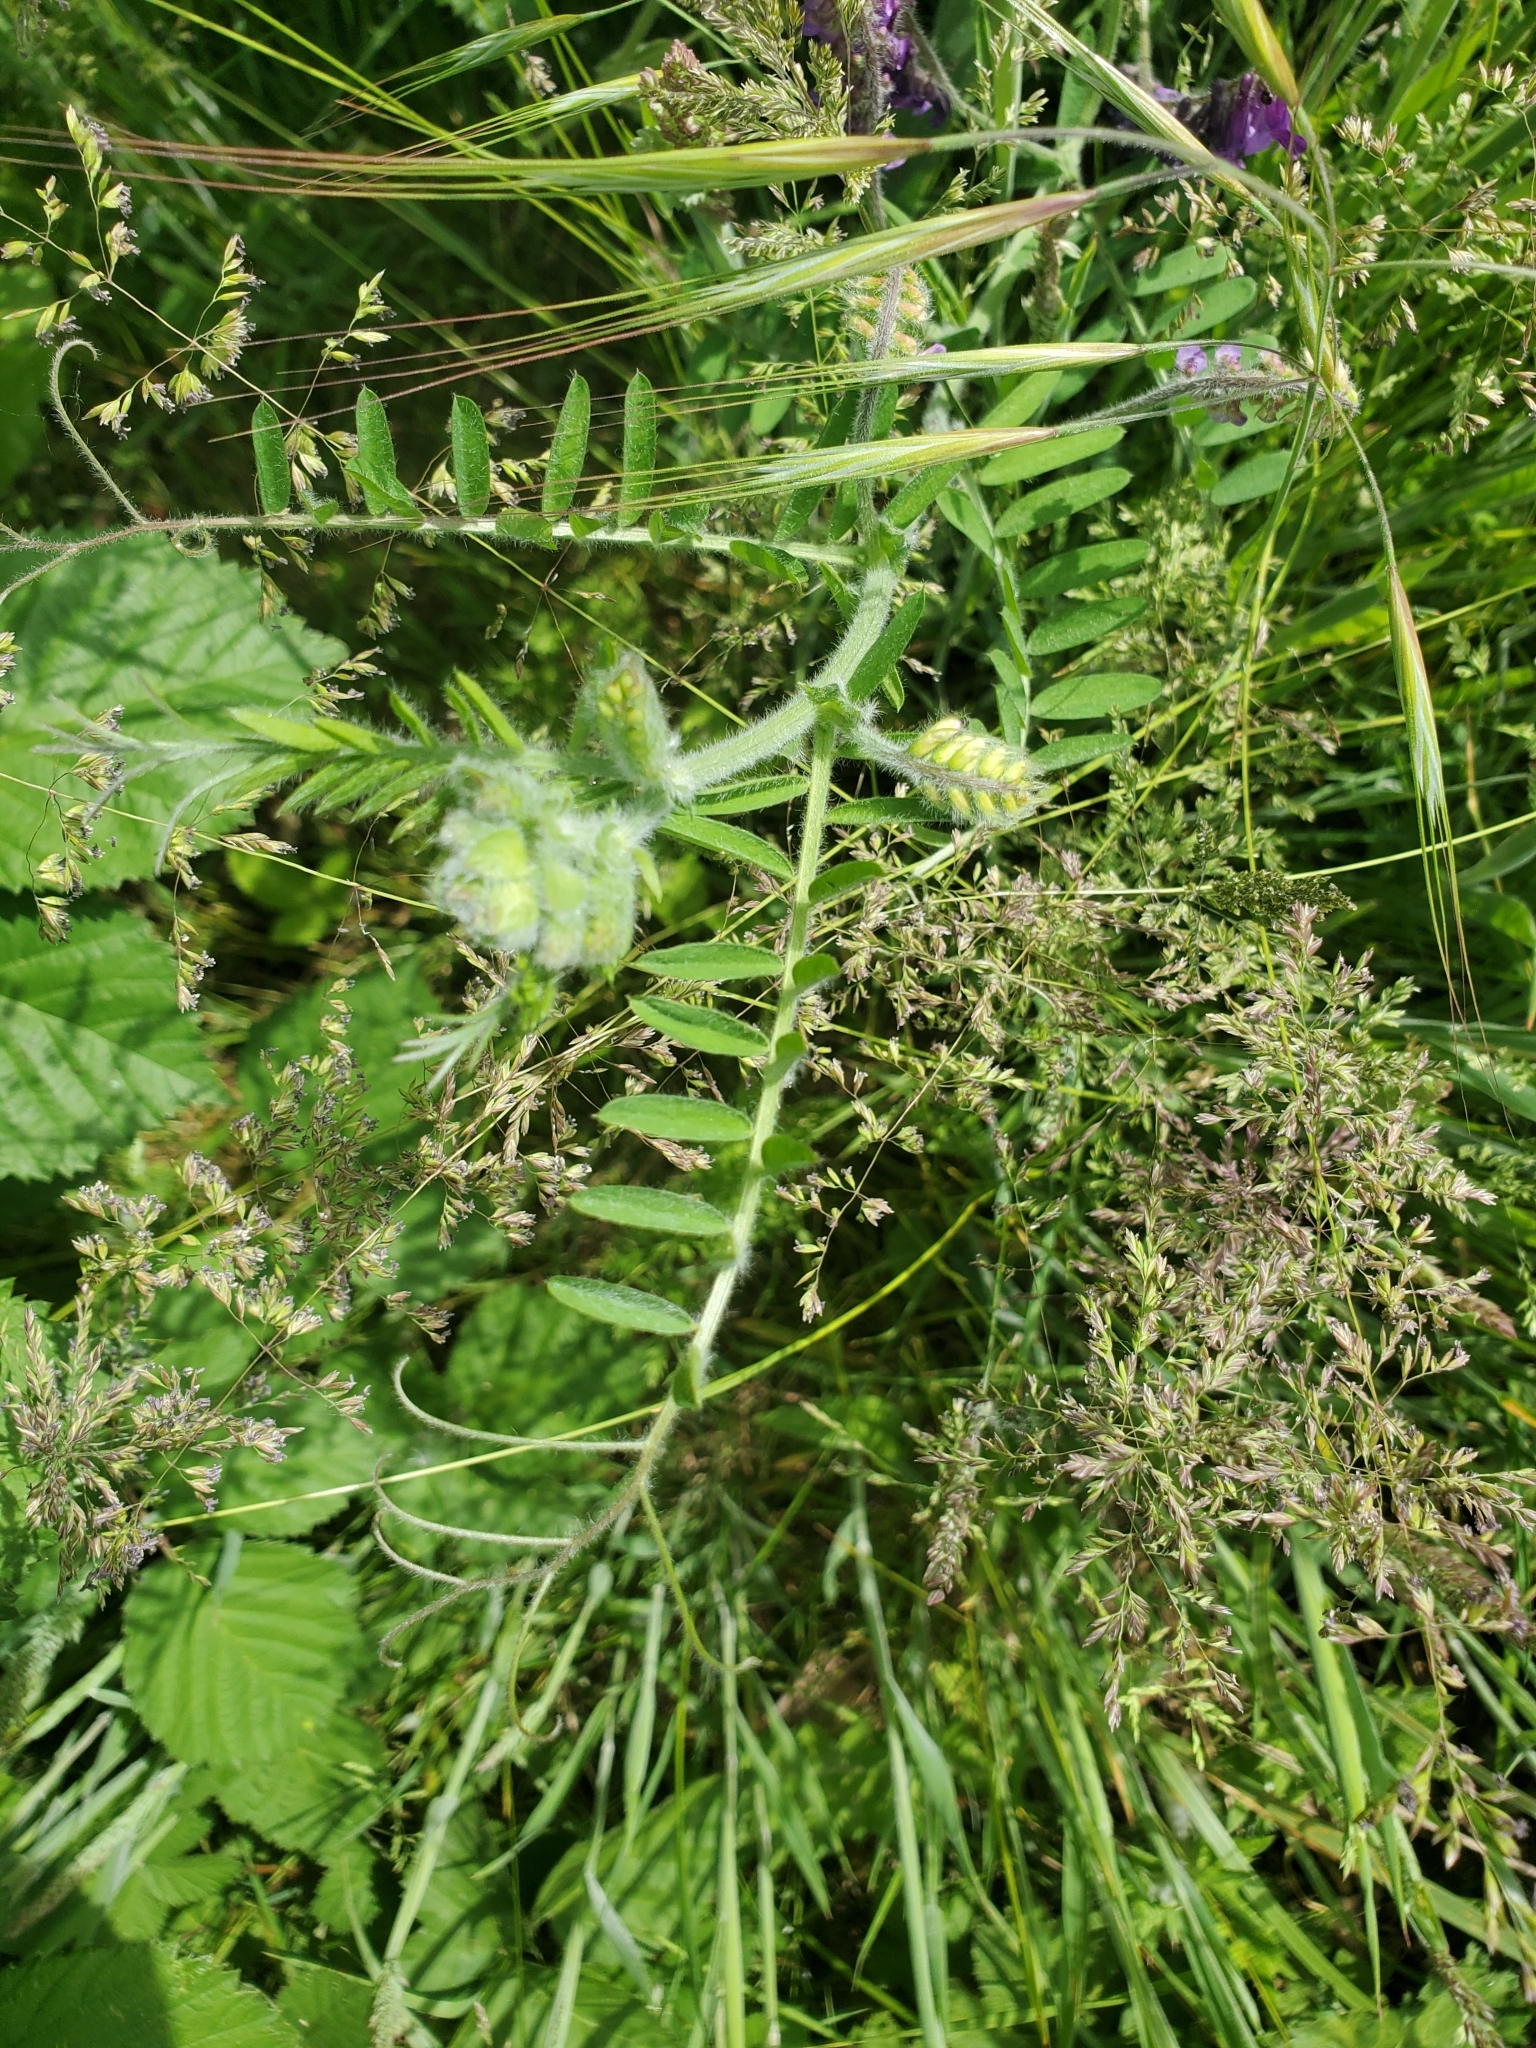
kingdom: Plantae
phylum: Tracheophyta
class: Magnoliopsida
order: Fabales
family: Fabaceae
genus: Vicia
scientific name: Vicia villosa
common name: Fodder vetch
